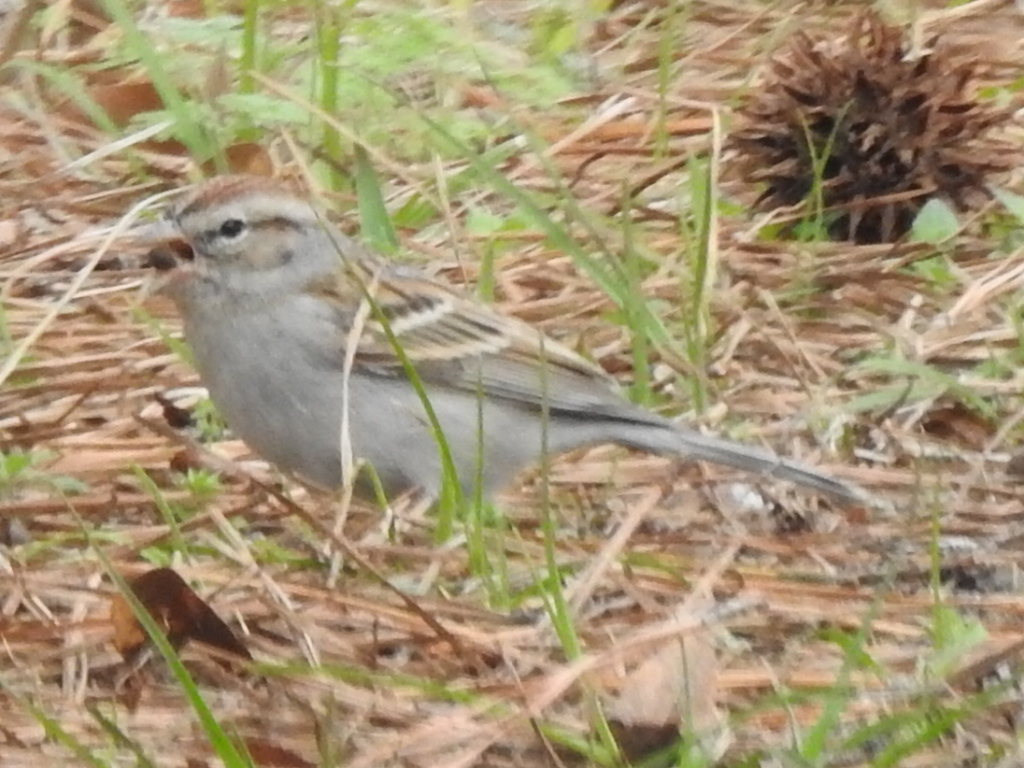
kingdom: Animalia
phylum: Chordata
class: Aves
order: Passeriformes
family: Passerellidae
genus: Spizella
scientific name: Spizella passerina
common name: Chipping sparrow
